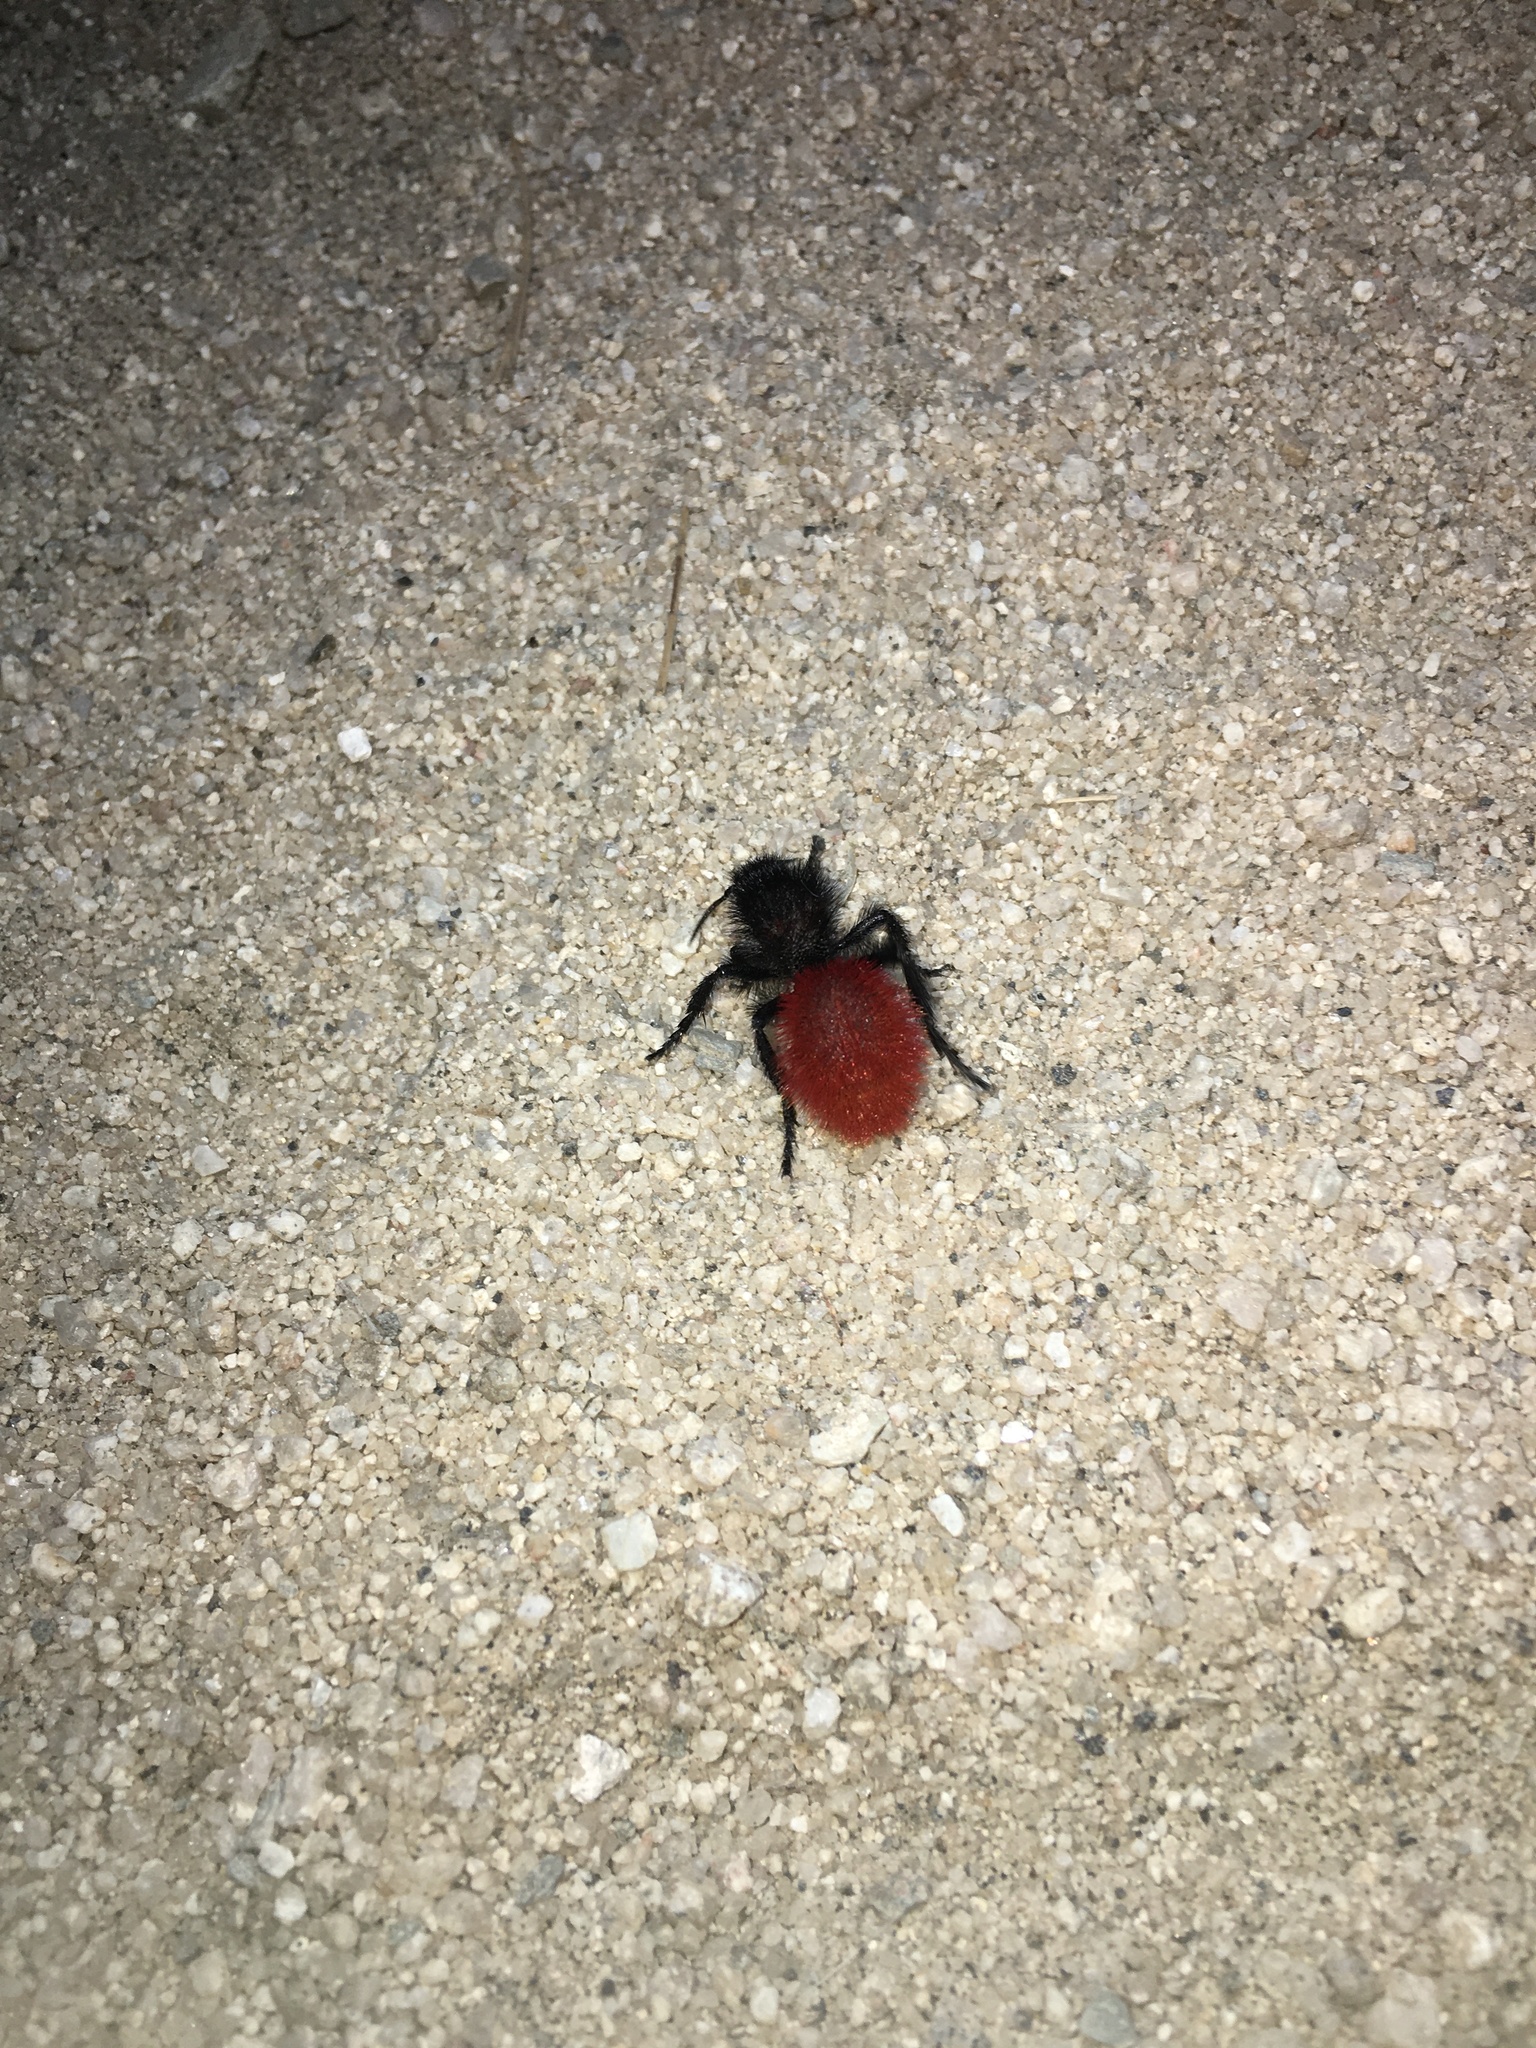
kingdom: Animalia
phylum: Arthropoda
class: Insecta
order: Hymenoptera
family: Mutillidae
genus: Dasymutilla
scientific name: Dasymutilla magnifica
